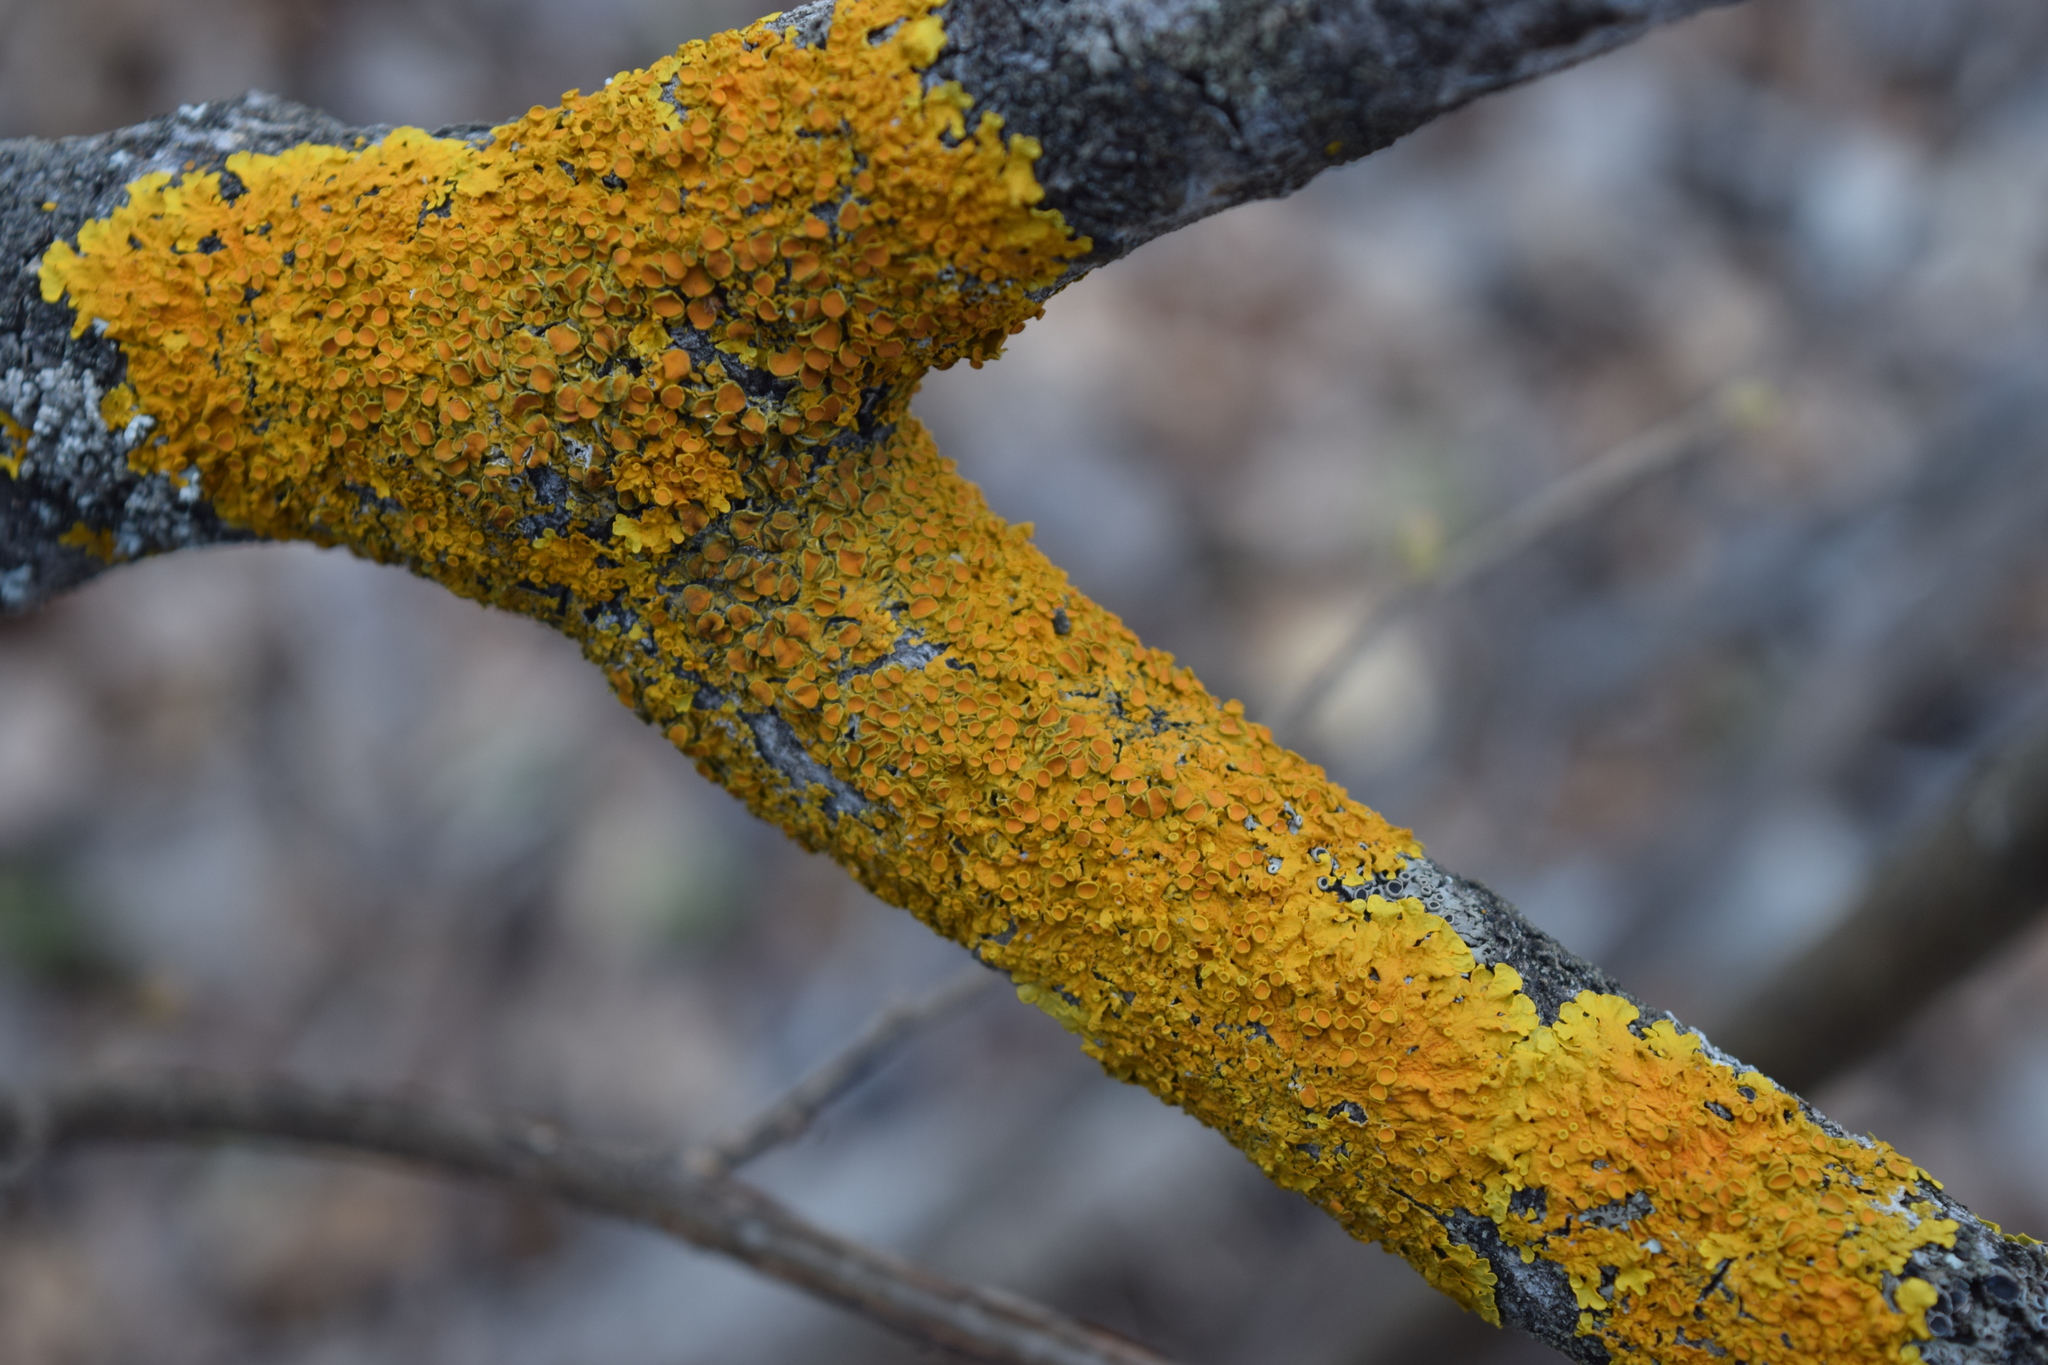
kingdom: Fungi
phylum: Ascomycota
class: Lecanoromycetes
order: Teloschistales
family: Teloschistaceae
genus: Xanthoria
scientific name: Xanthoria parietina
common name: Common orange lichen
